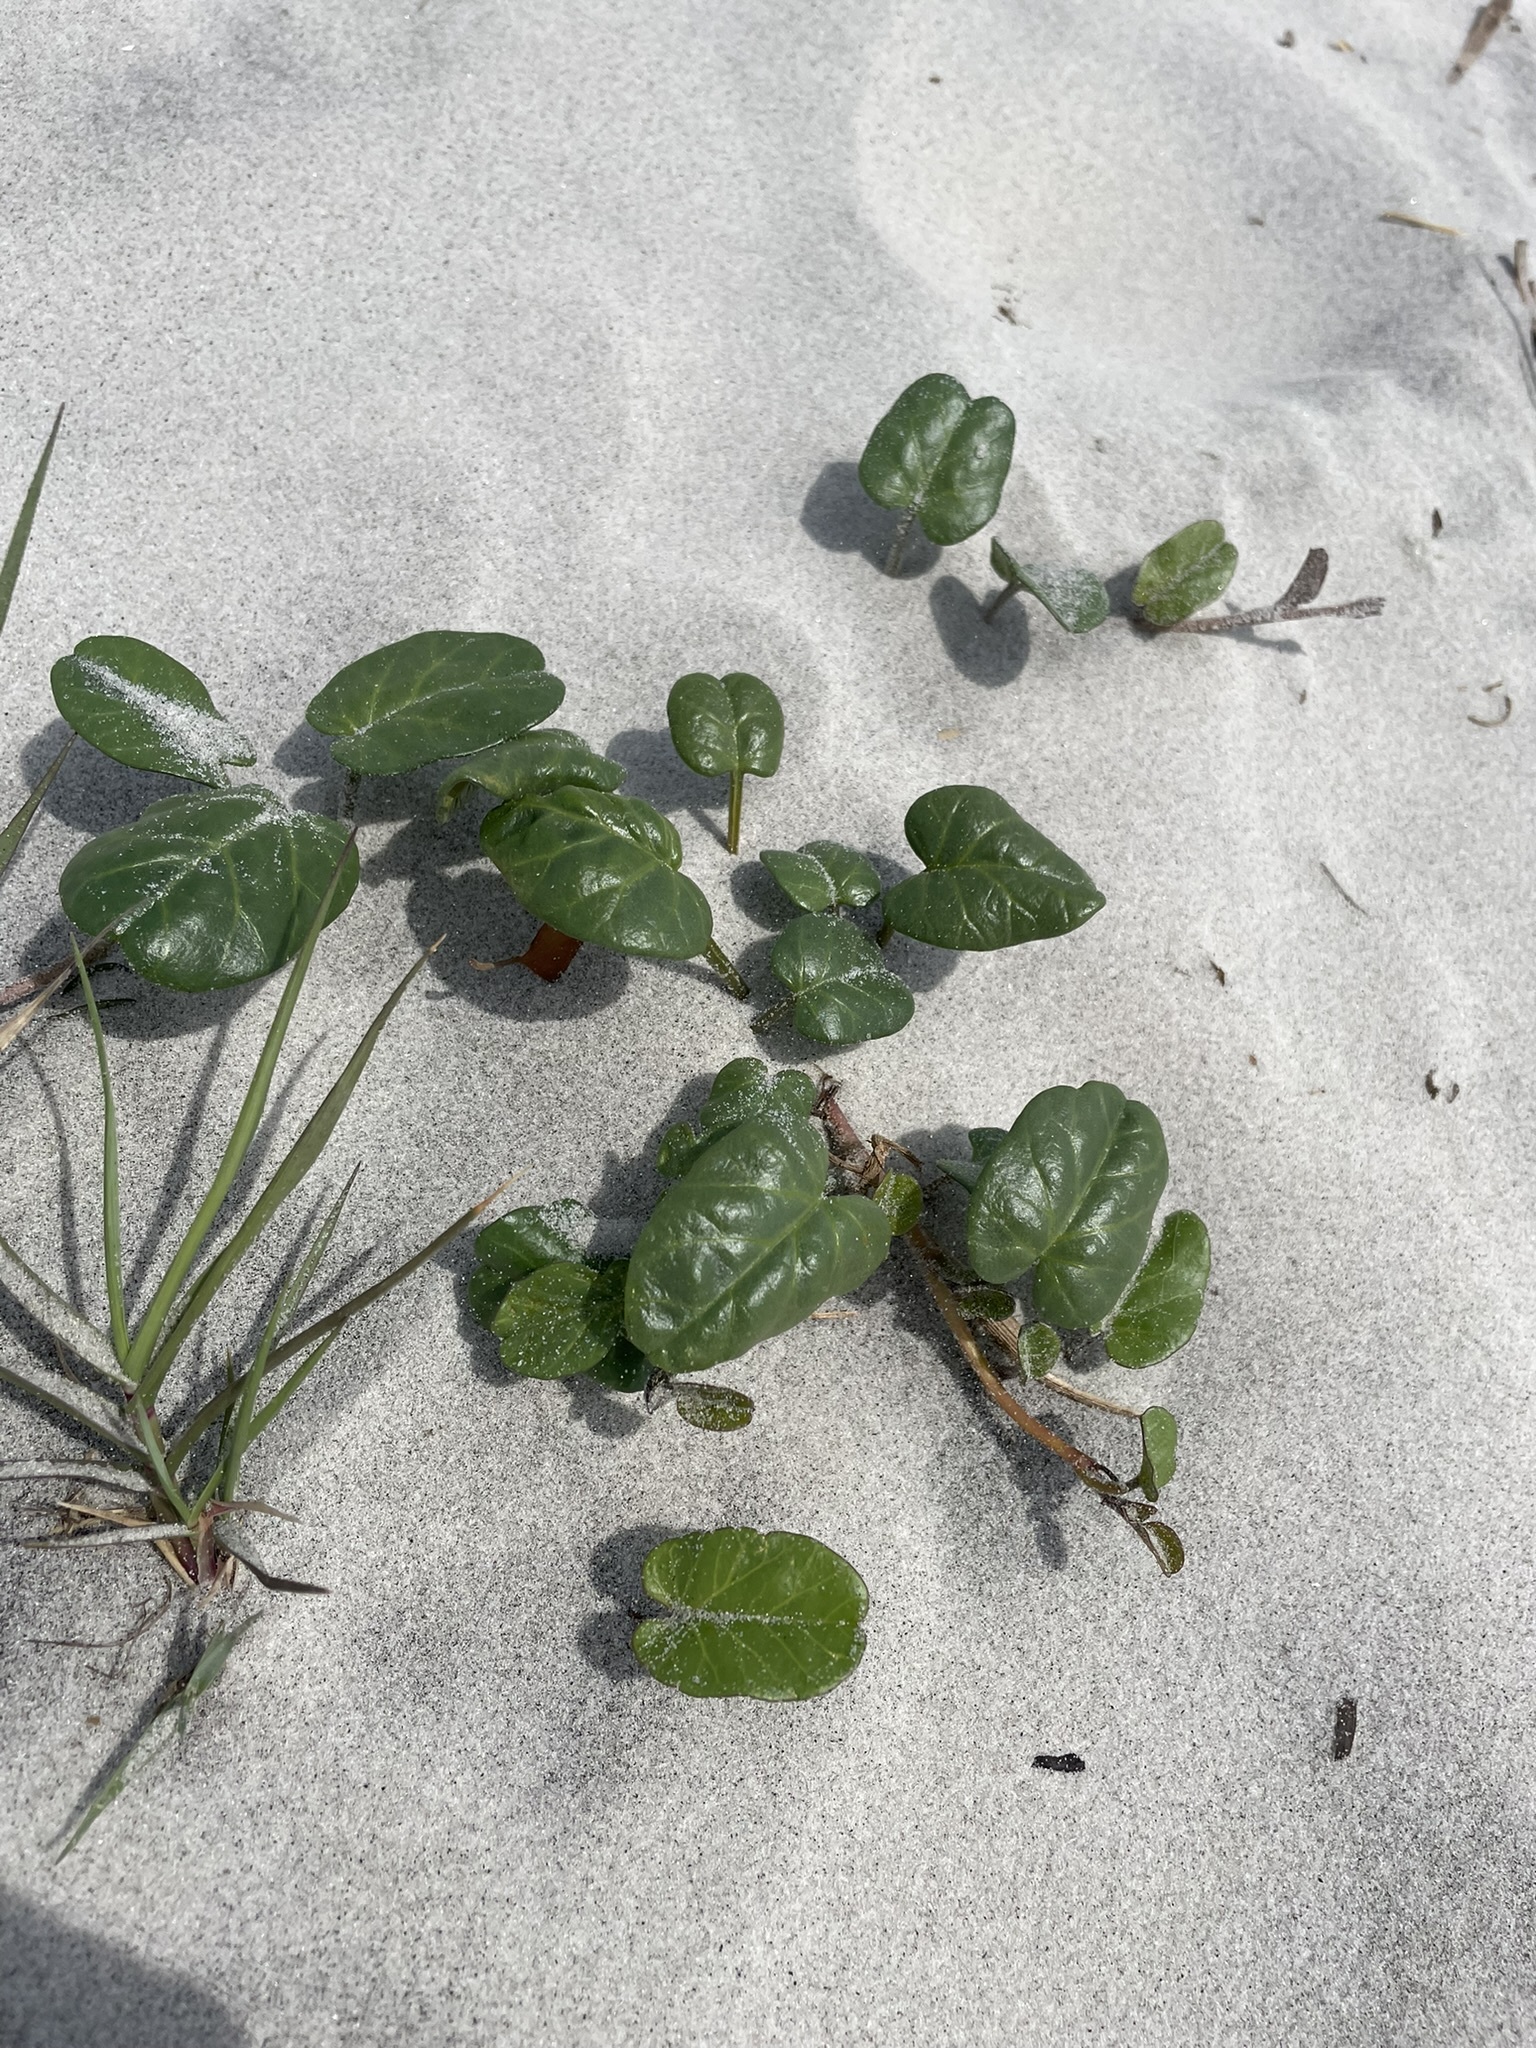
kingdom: Plantae
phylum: Tracheophyta
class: Magnoliopsida
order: Solanales
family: Convolvulaceae
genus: Ipomoea
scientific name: Ipomoea imperati
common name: Fiddle-leaf morning-glory
